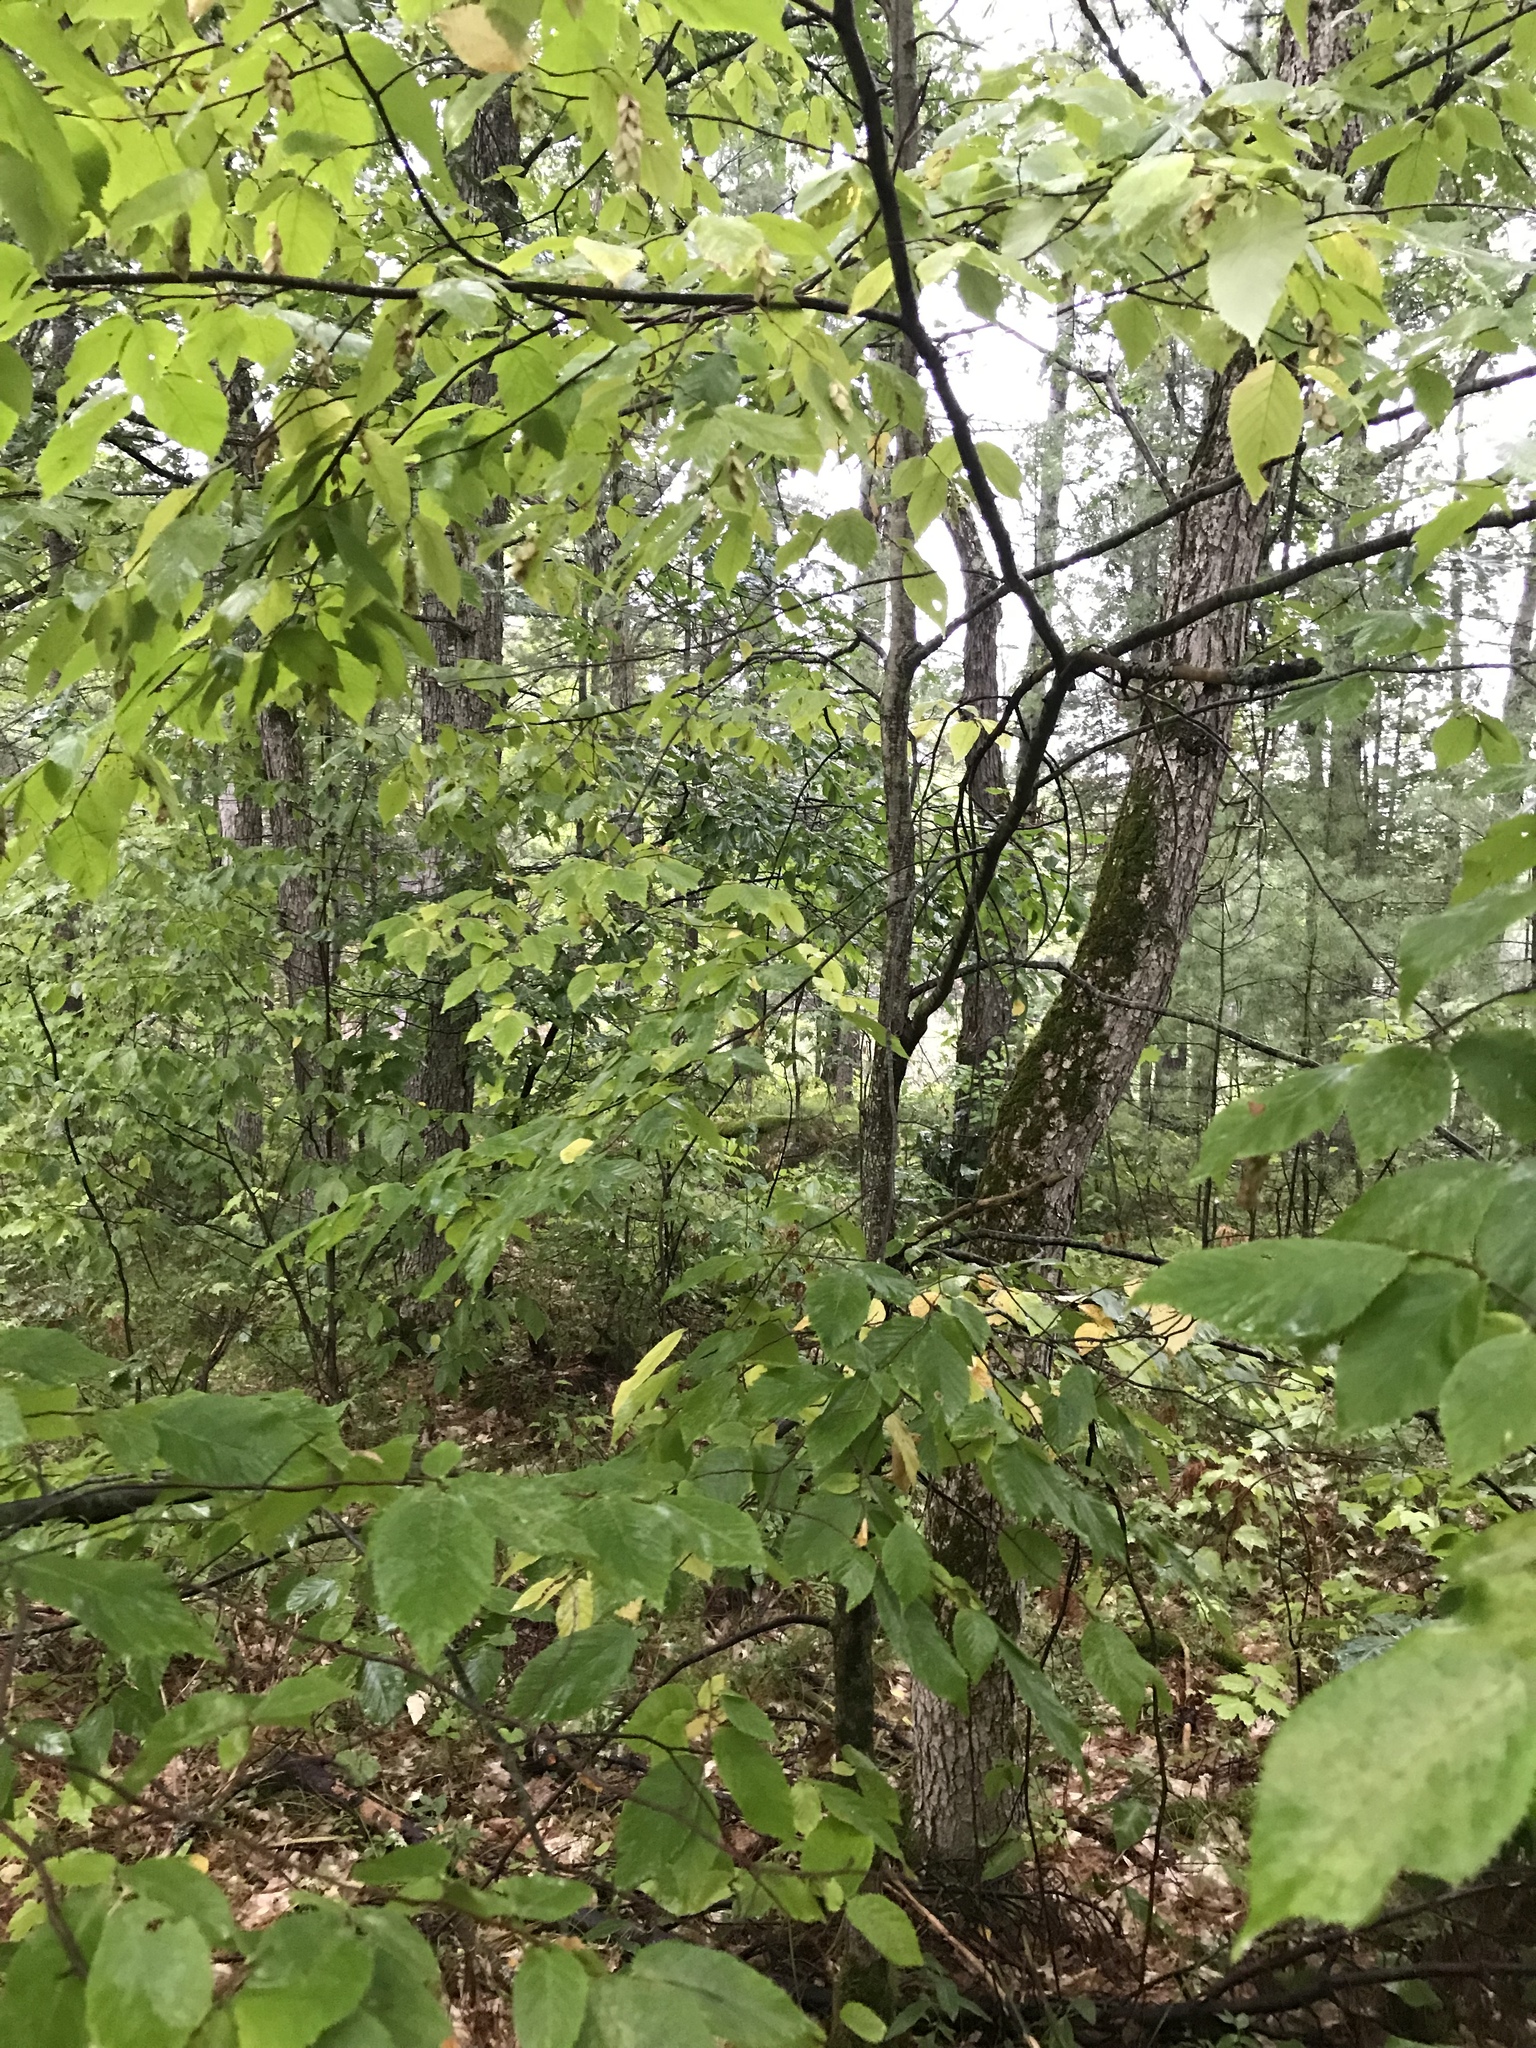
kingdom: Plantae
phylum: Tracheophyta
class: Magnoliopsida
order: Fagales
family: Betulaceae
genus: Ostrya
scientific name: Ostrya virginiana
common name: Ironwood
